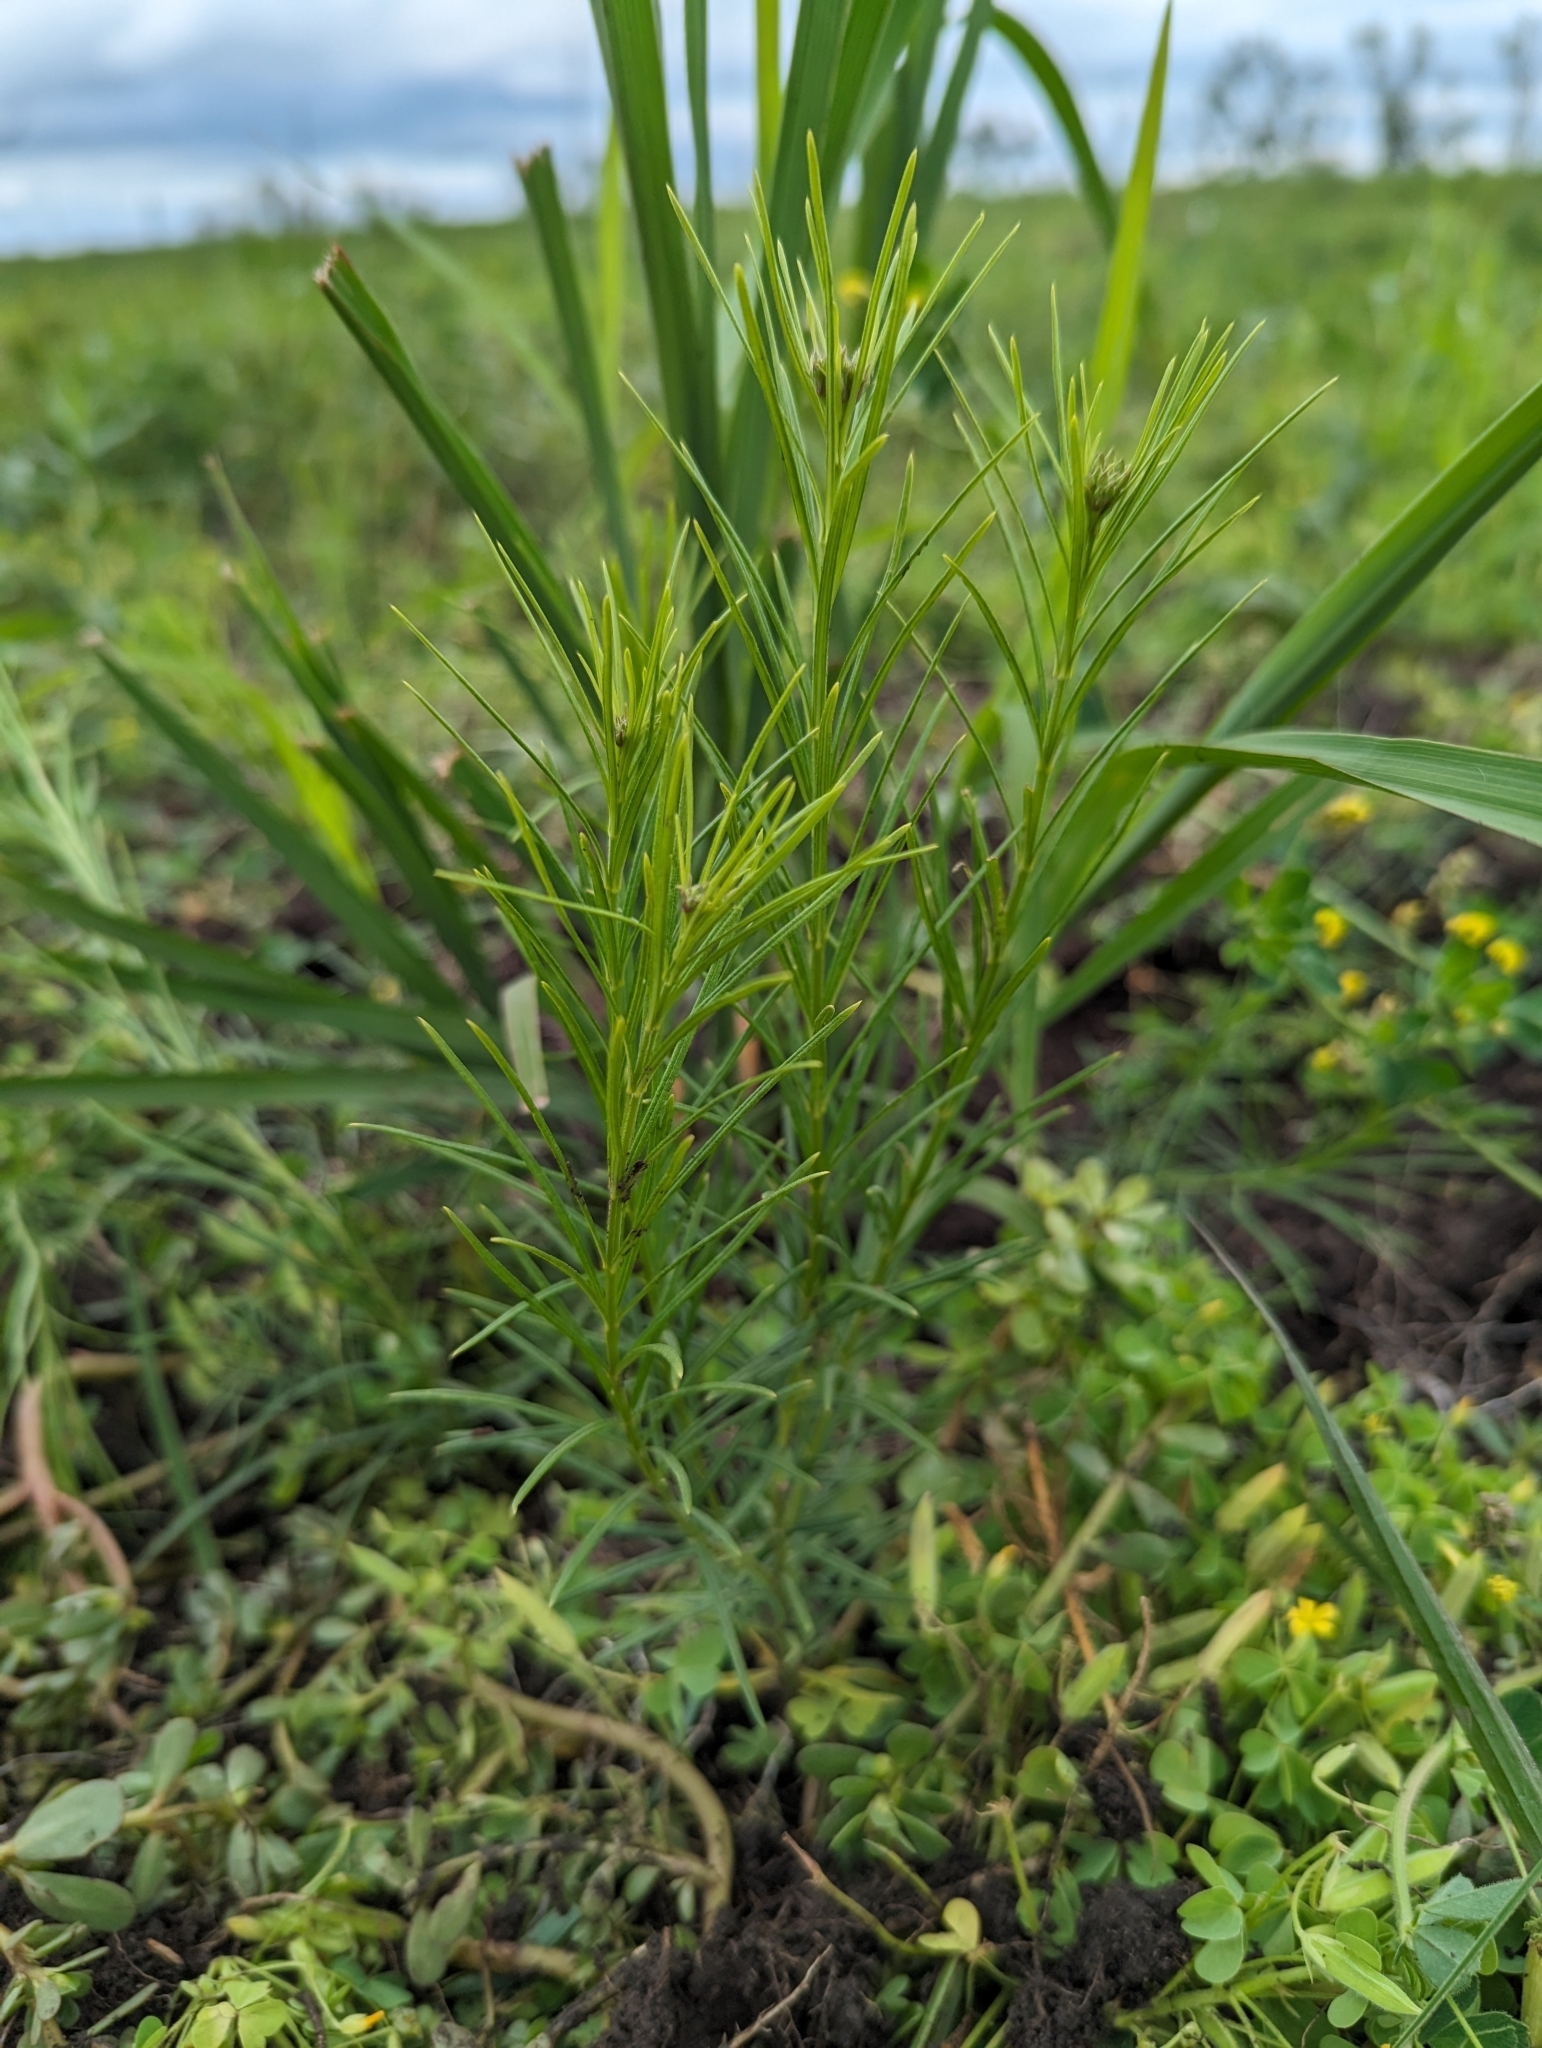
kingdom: Plantae
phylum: Tracheophyta
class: Magnoliopsida
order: Gentianales
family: Apocynaceae
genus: Asclepias
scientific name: Asclepias verticillata
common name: Eastern whorled milkweed
